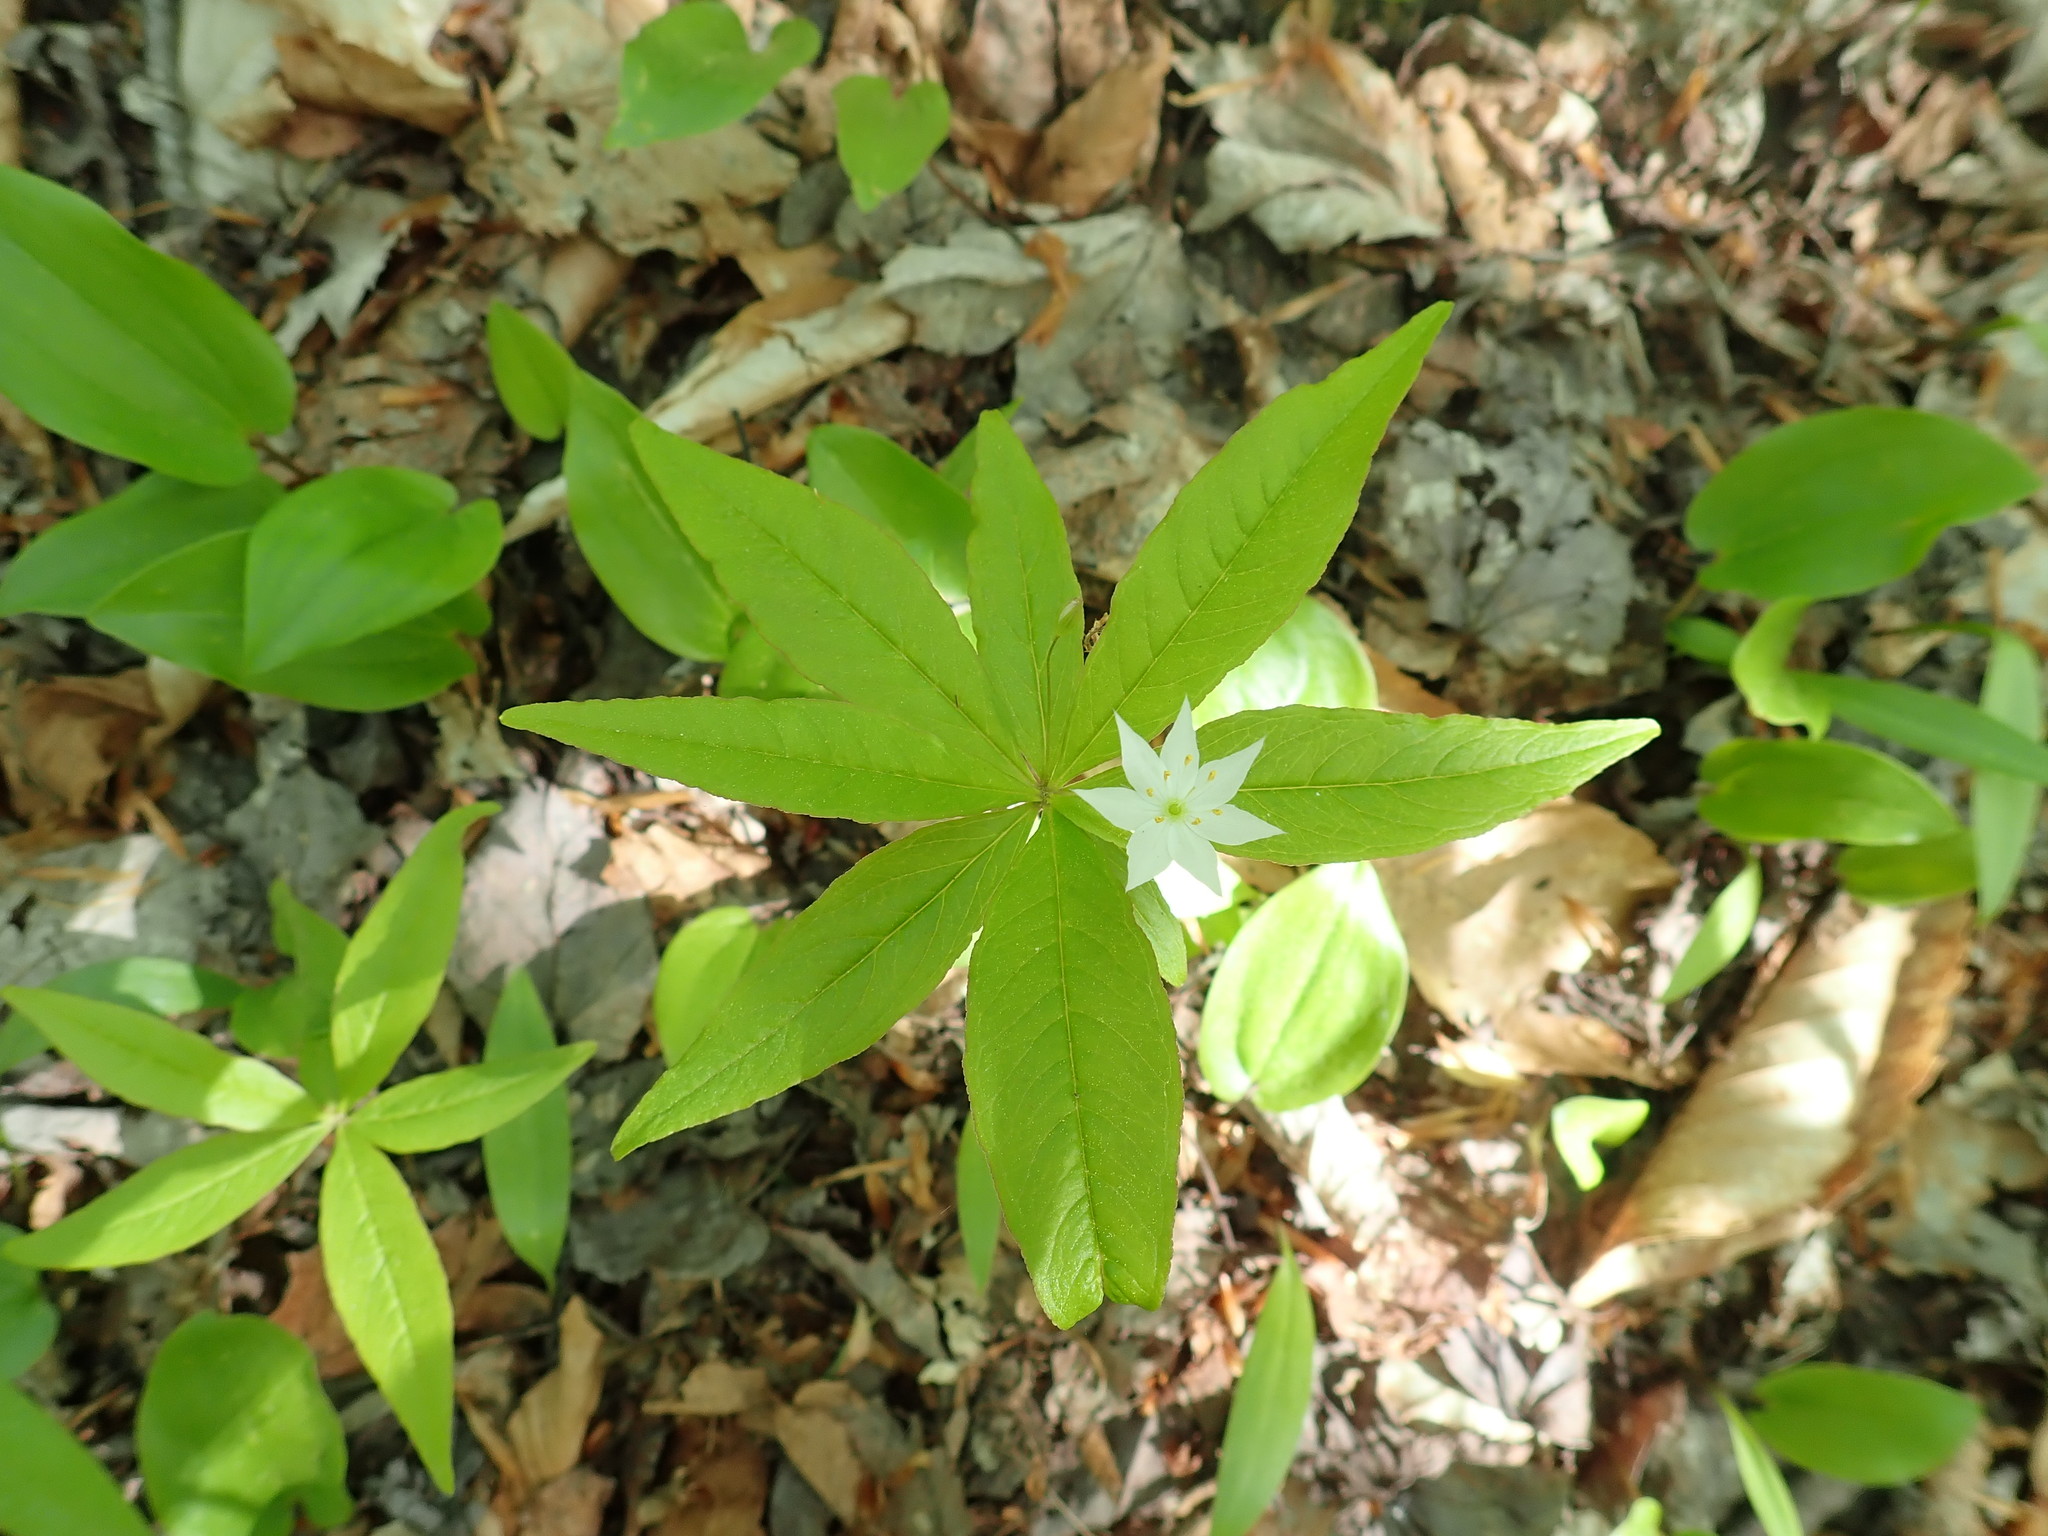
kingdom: Plantae
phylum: Tracheophyta
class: Magnoliopsida
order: Ericales
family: Primulaceae
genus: Lysimachia
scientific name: Lysimachia borealis
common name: American starflower
